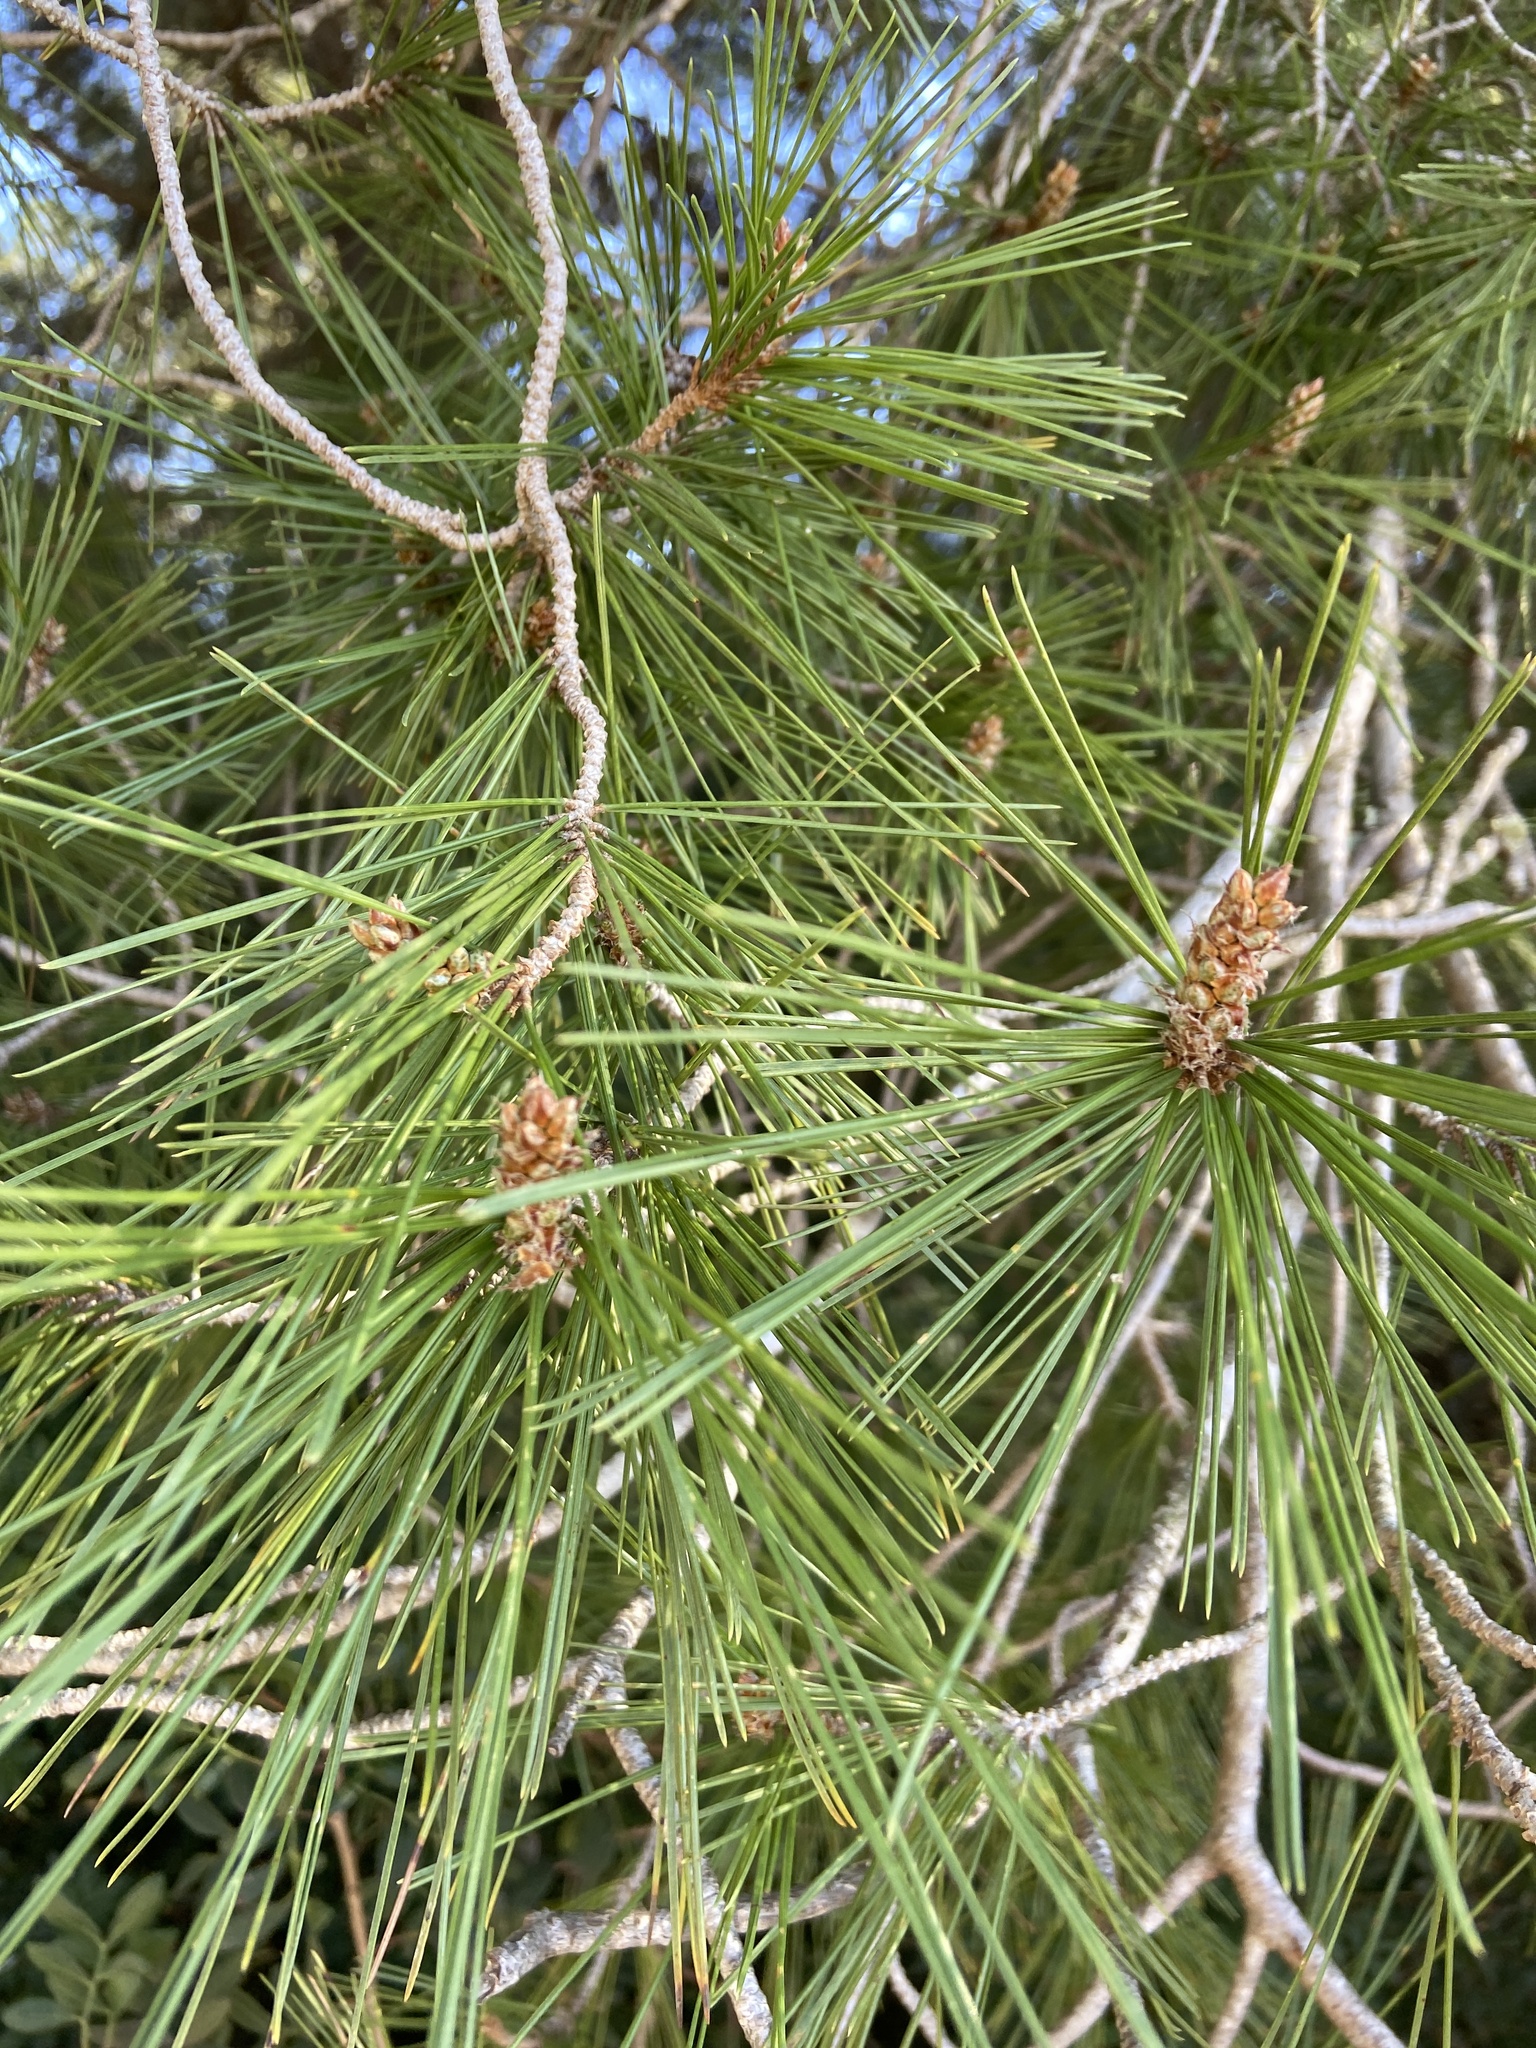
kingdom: Plantae
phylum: Tracheophyta
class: Pinopsida
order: Pinales
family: Pinaceae
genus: Pinus
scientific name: Pinus halepensis
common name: Aleppo pine
